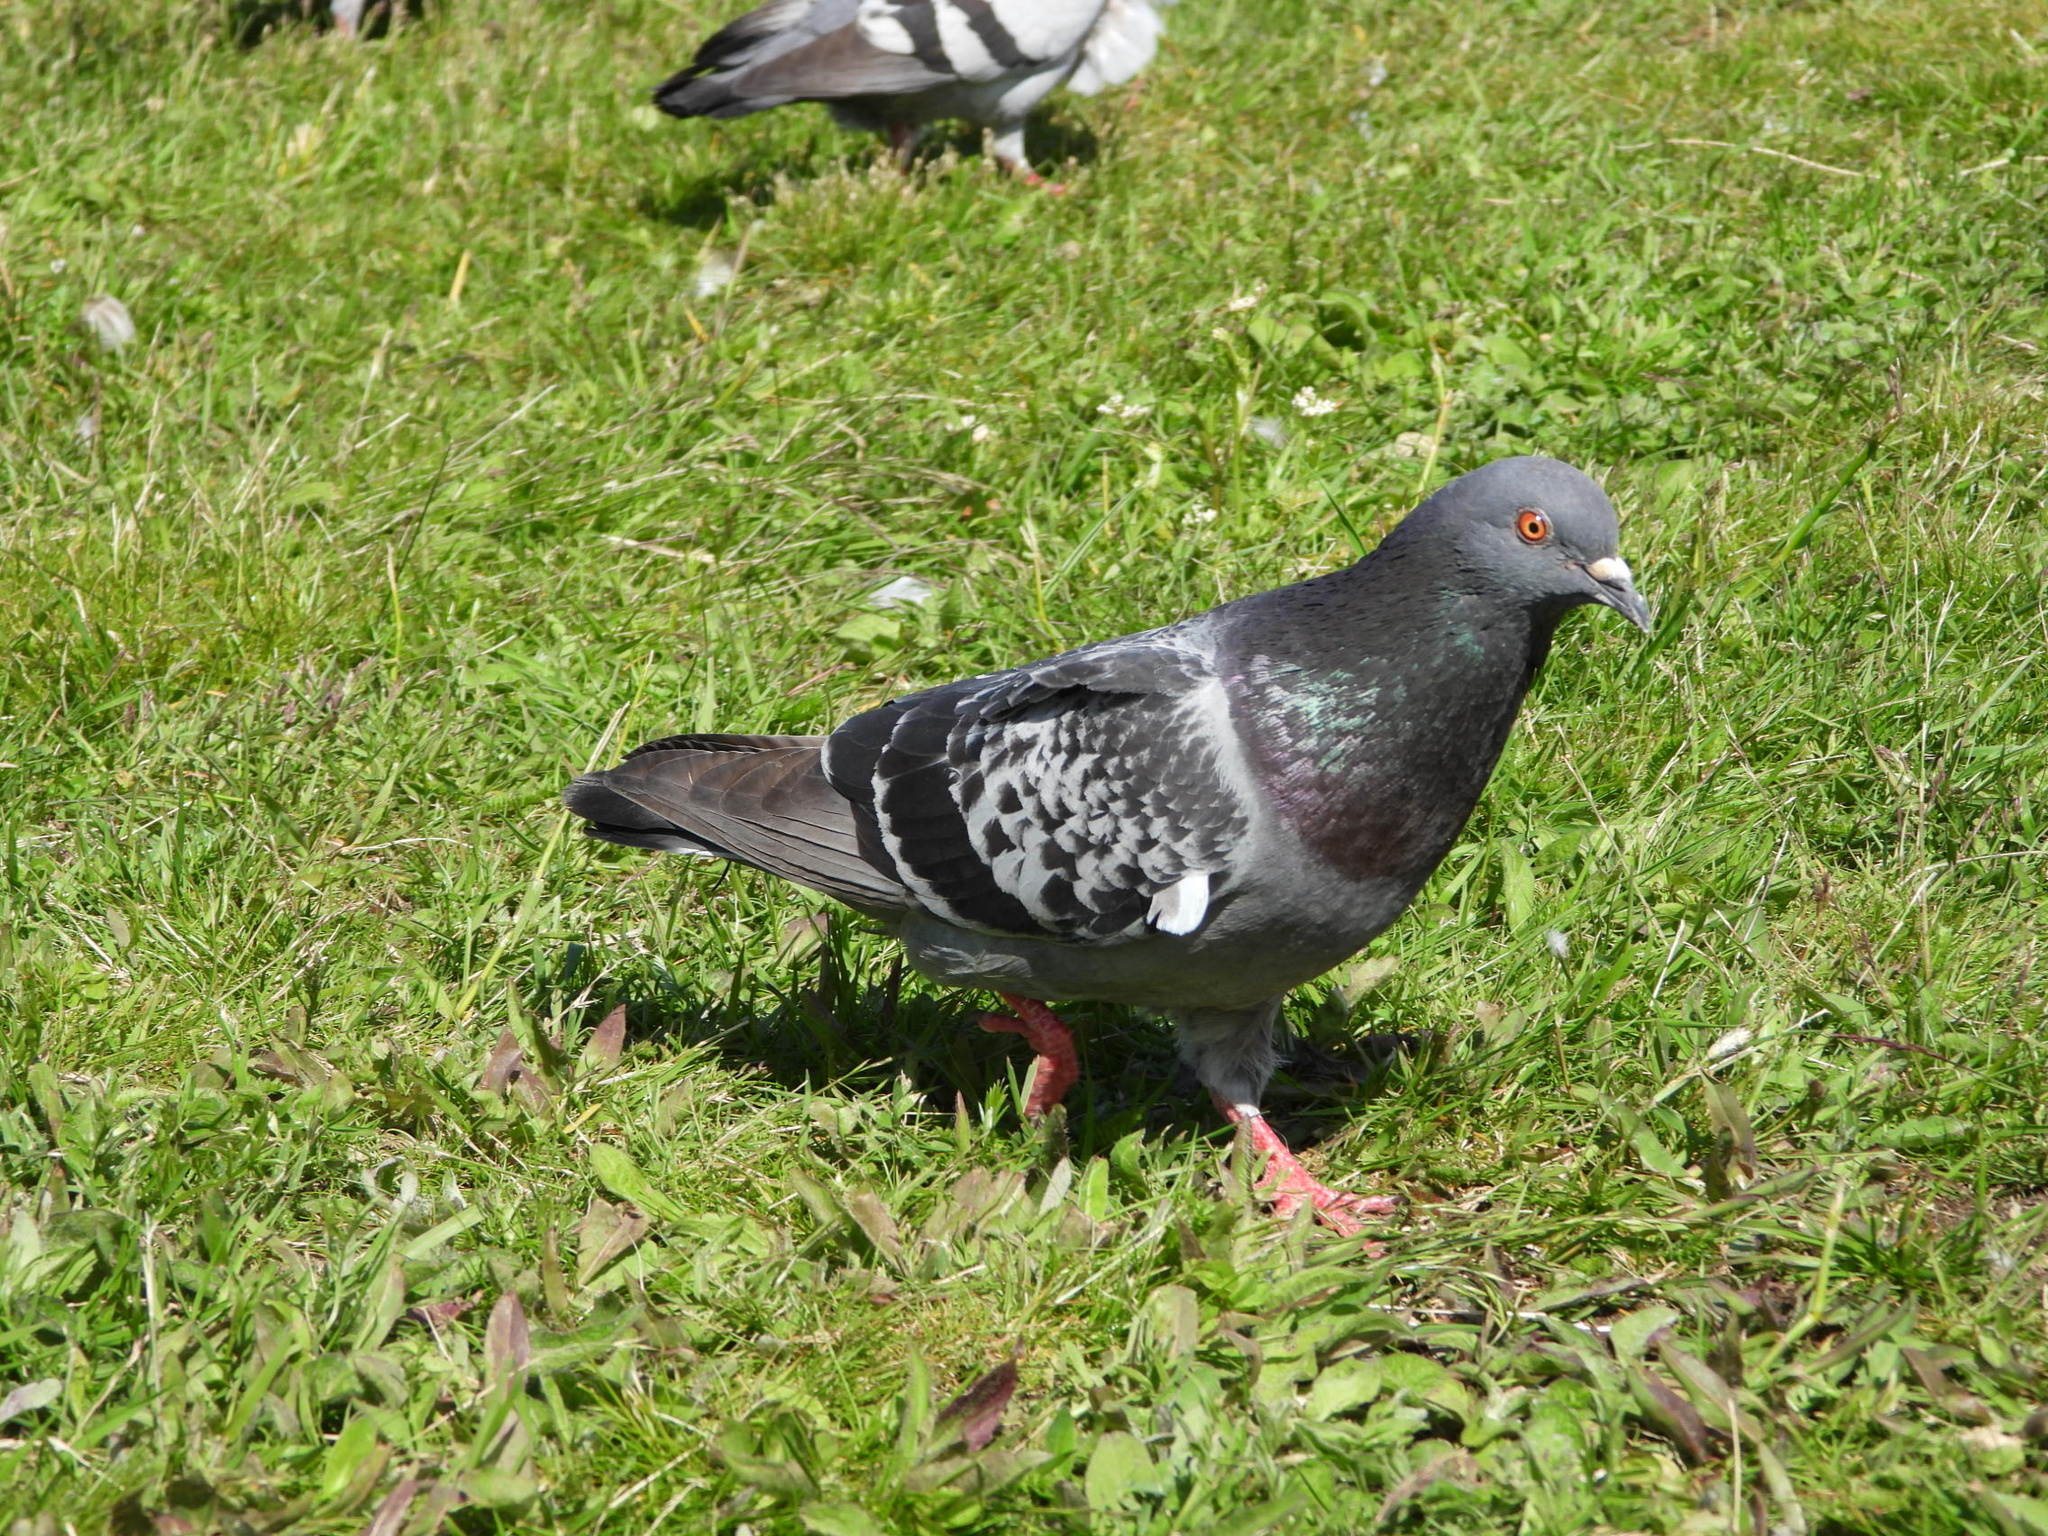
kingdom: Animalia
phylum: Chordata
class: Aves
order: Columbiformes
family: Columbidae
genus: Columba
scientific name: Columba livia
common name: Rock pigeon
